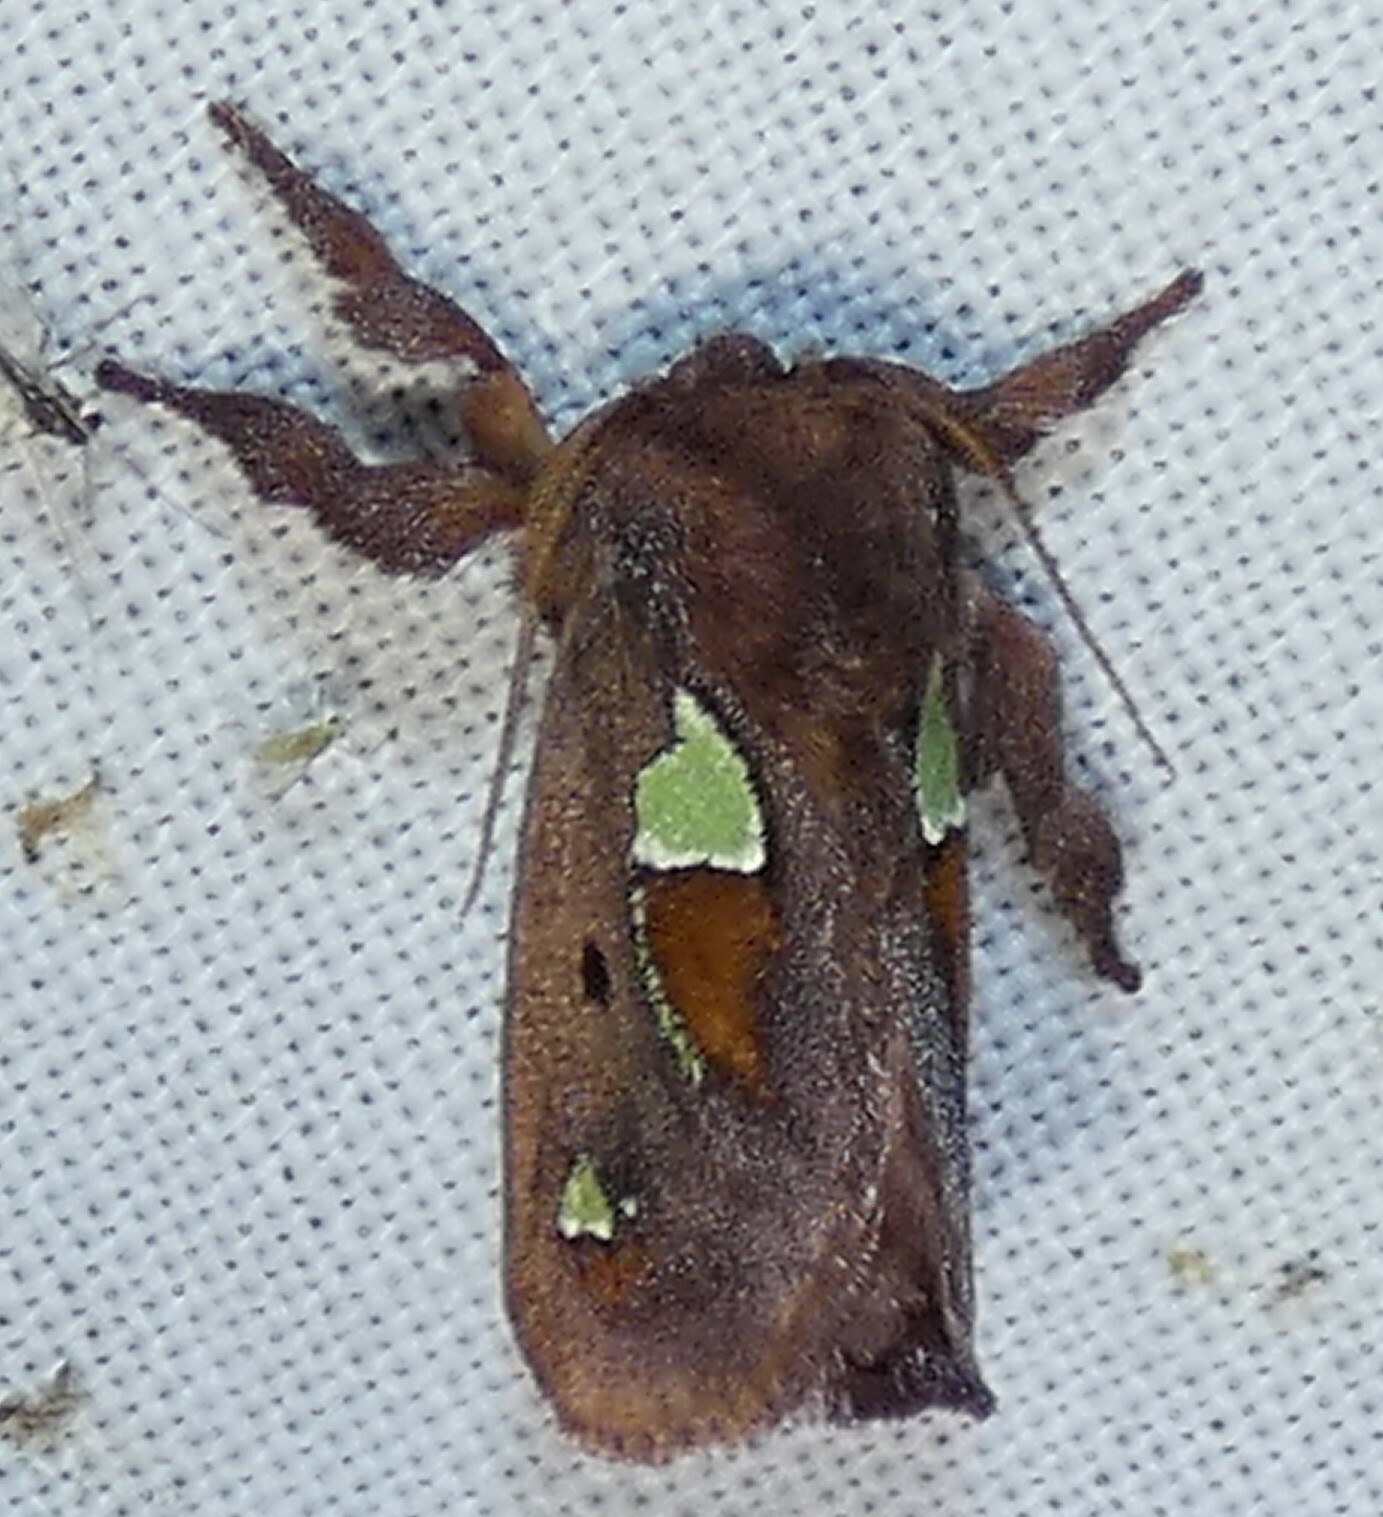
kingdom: Animalia
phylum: Arthropoda
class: Insecta
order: Lepidoptera
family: Limacodidae
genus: Euclea
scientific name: Euclea delphinii
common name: Spiny oak-slug moth
